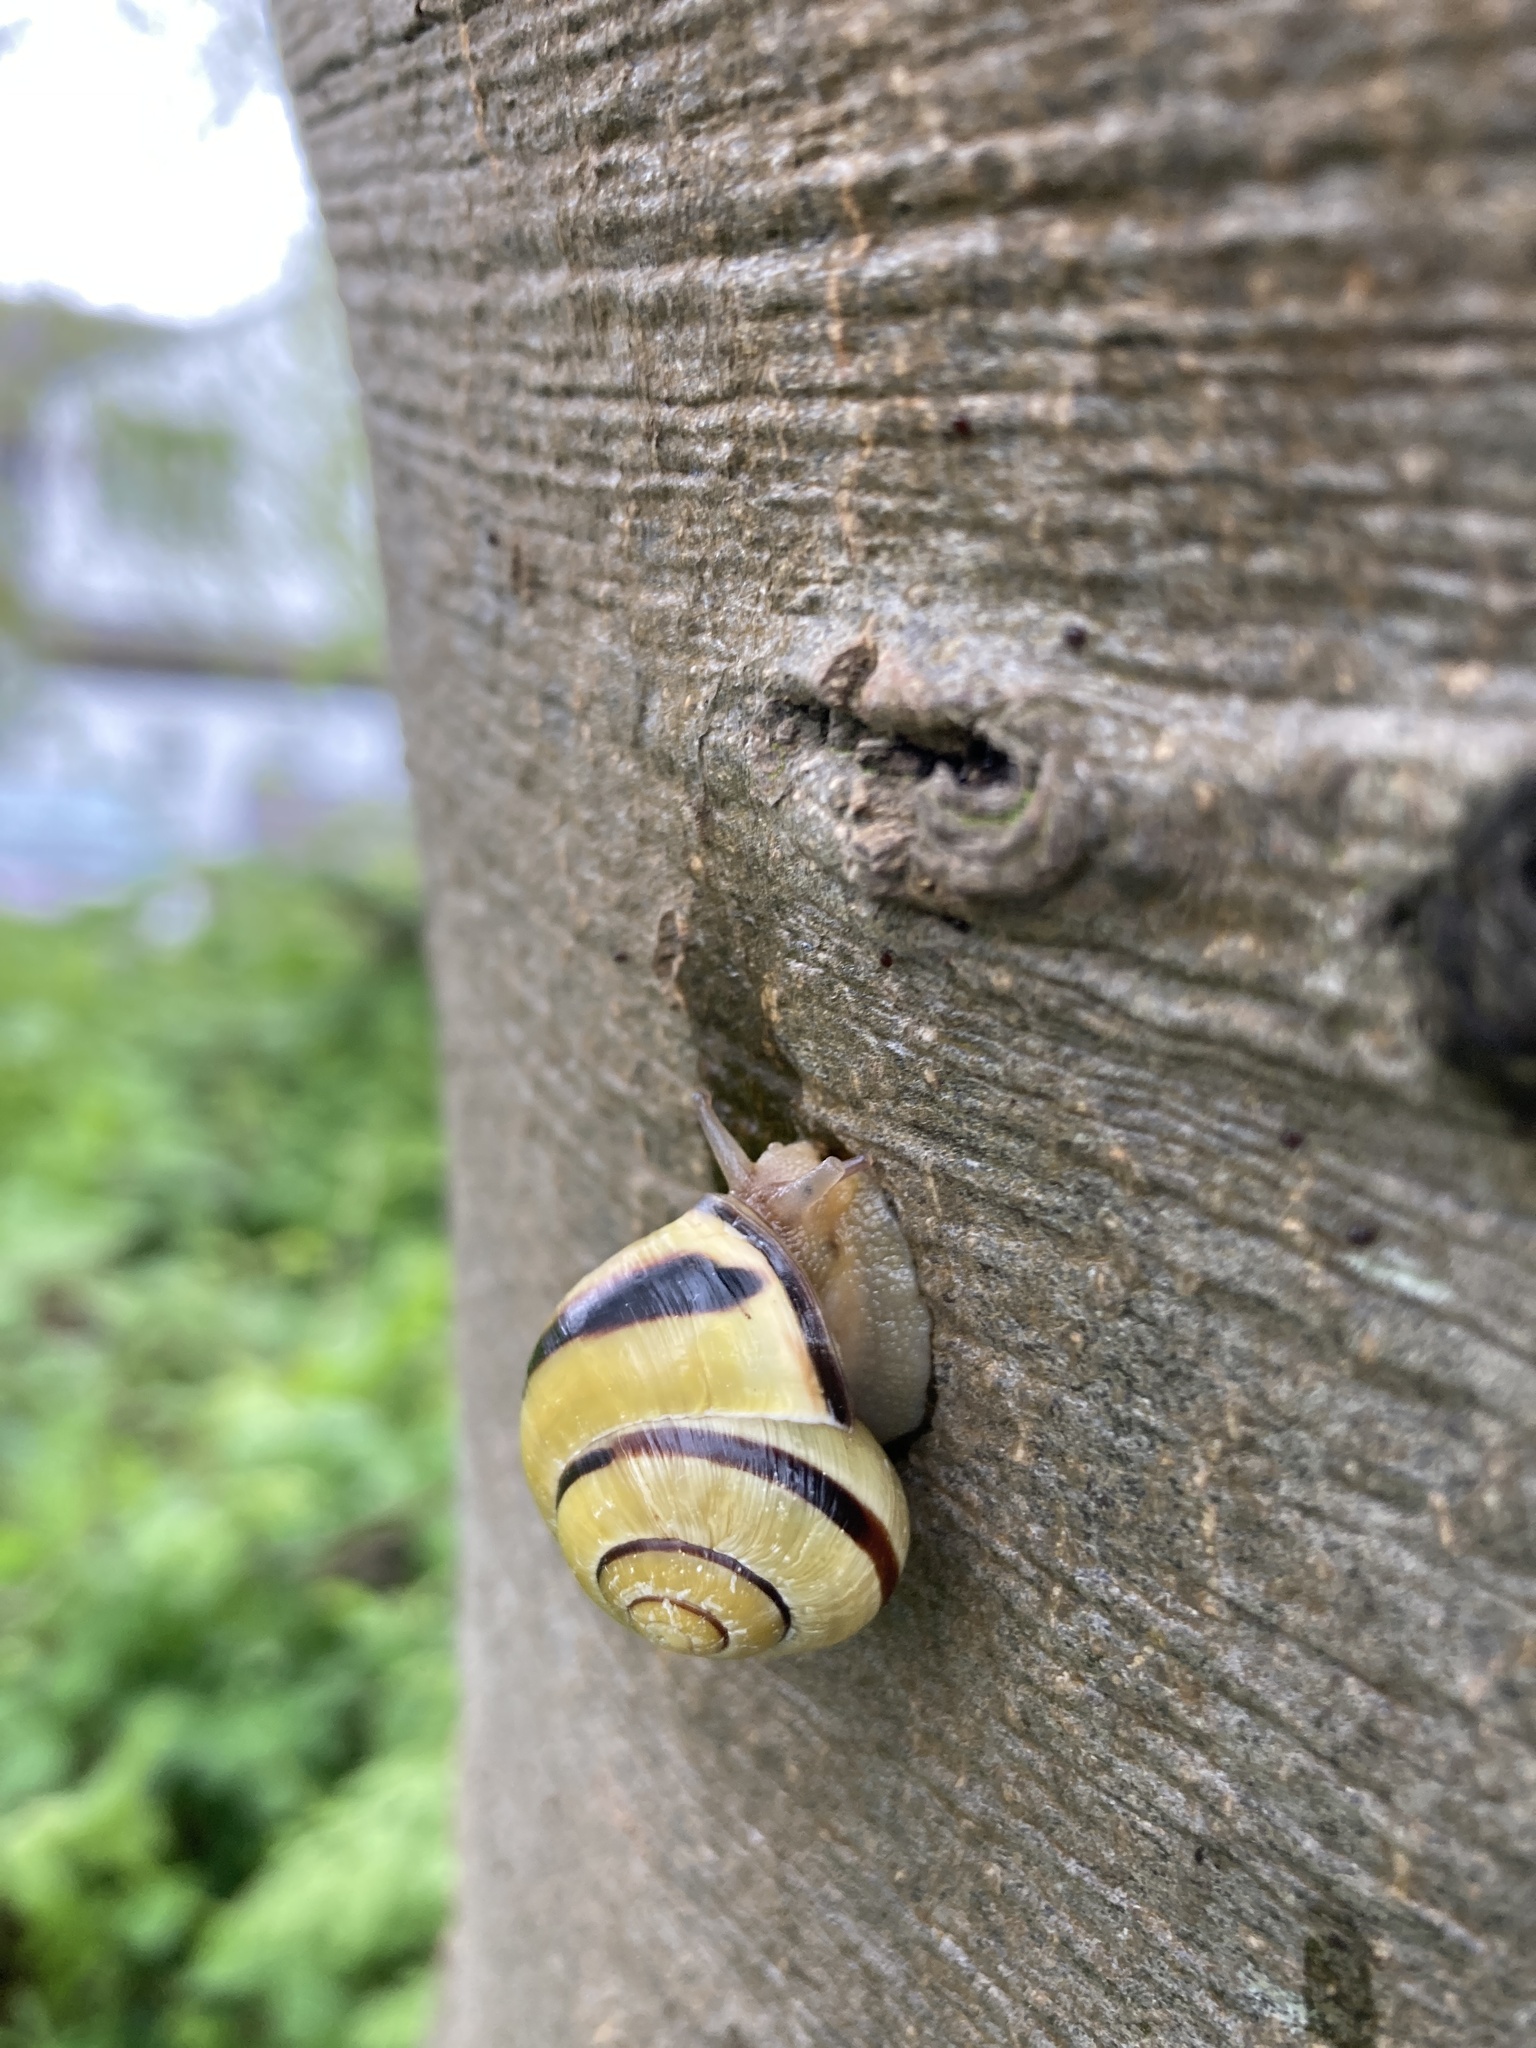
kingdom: Animalia
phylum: Mollusca
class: Gastropoda
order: Stylommatophora
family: Helicidae
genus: Cepaea
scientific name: Cepaea nemoralis
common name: Grovesnail
